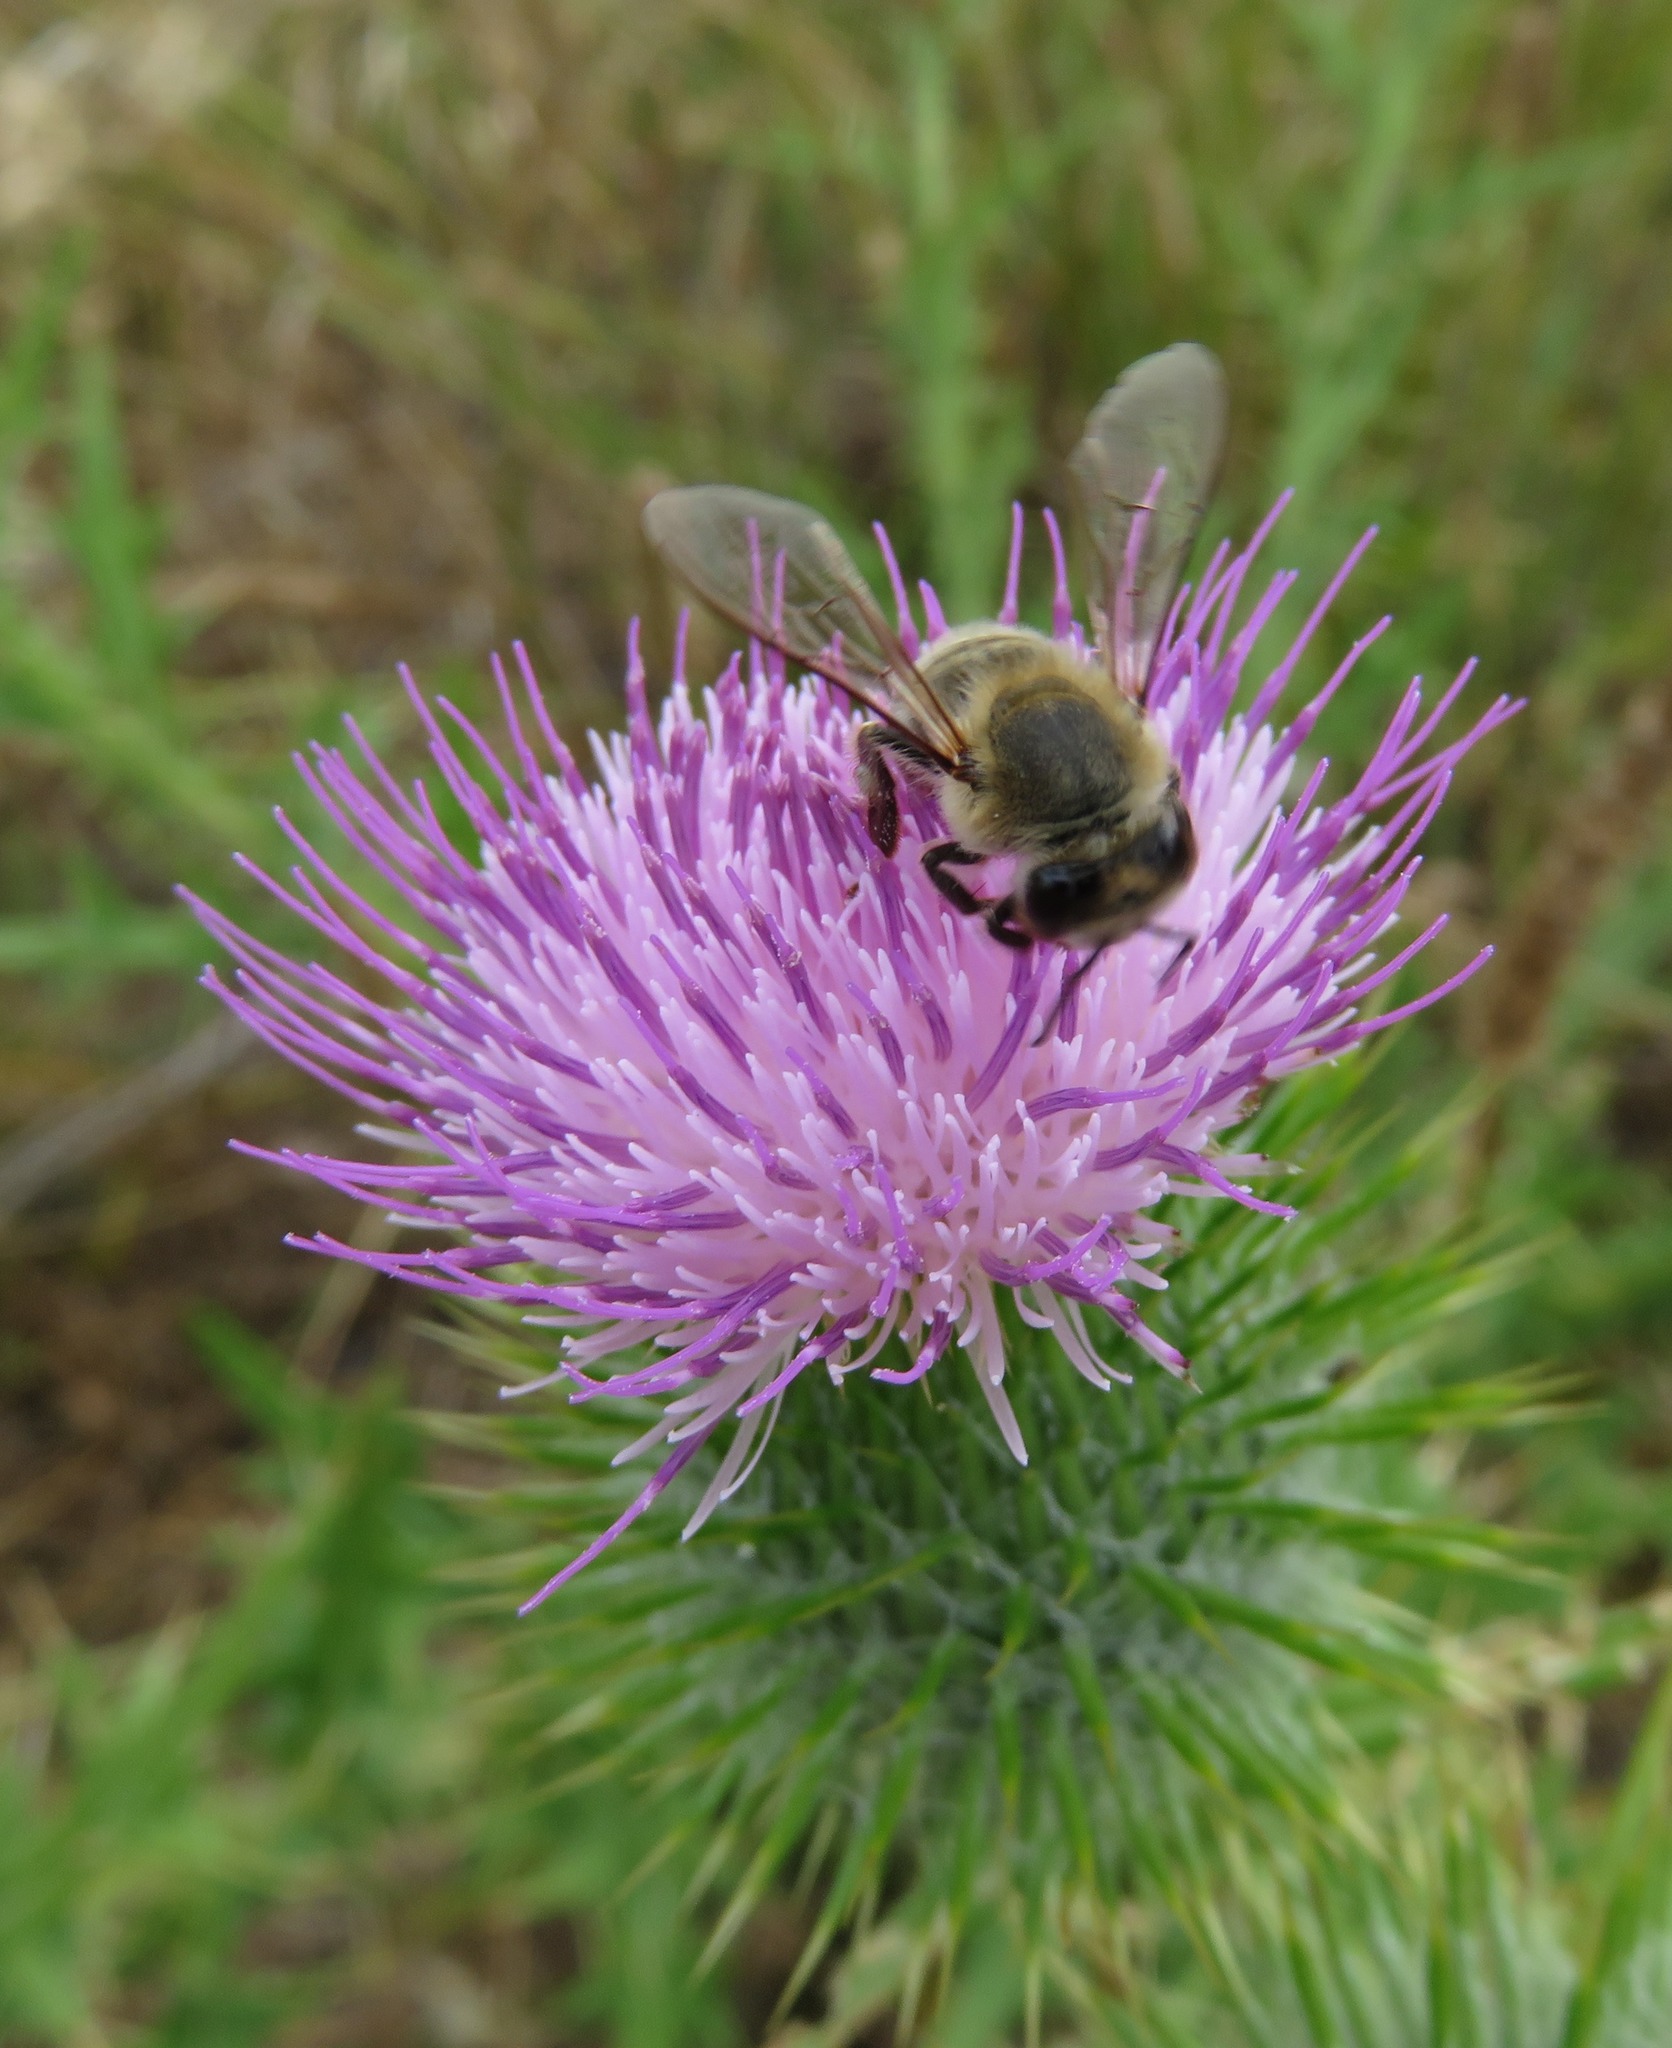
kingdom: Animalia
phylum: Arthropoda
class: Insecta
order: Hymenoptera
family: Apidae
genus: Apis
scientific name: Apis mellifera
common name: Honey bee
